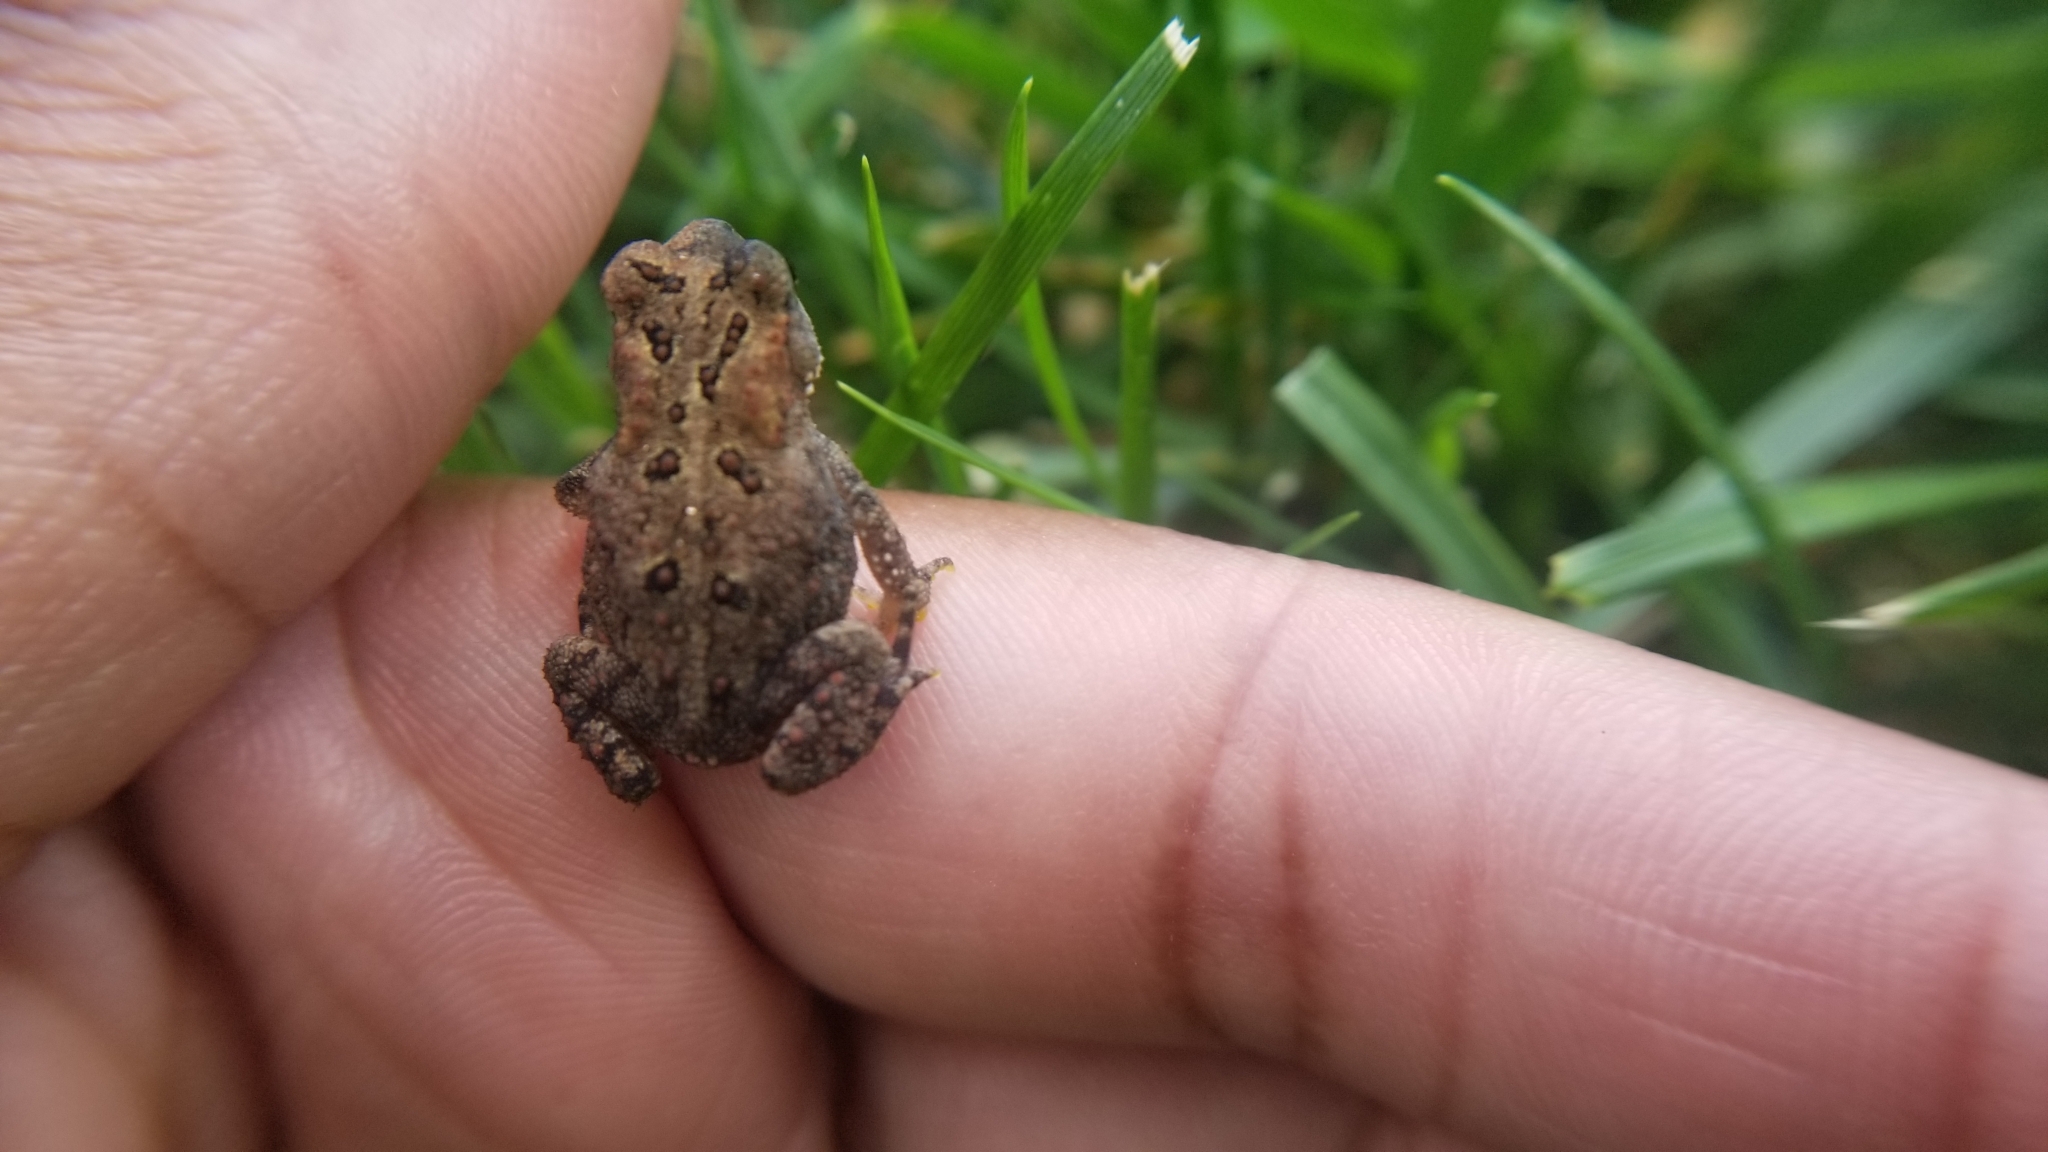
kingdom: Animalia
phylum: Chordata
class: Amphibia
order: Anura
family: Bufonidae
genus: Anaxyrus
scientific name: Anaxyrus americanus
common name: American toad
